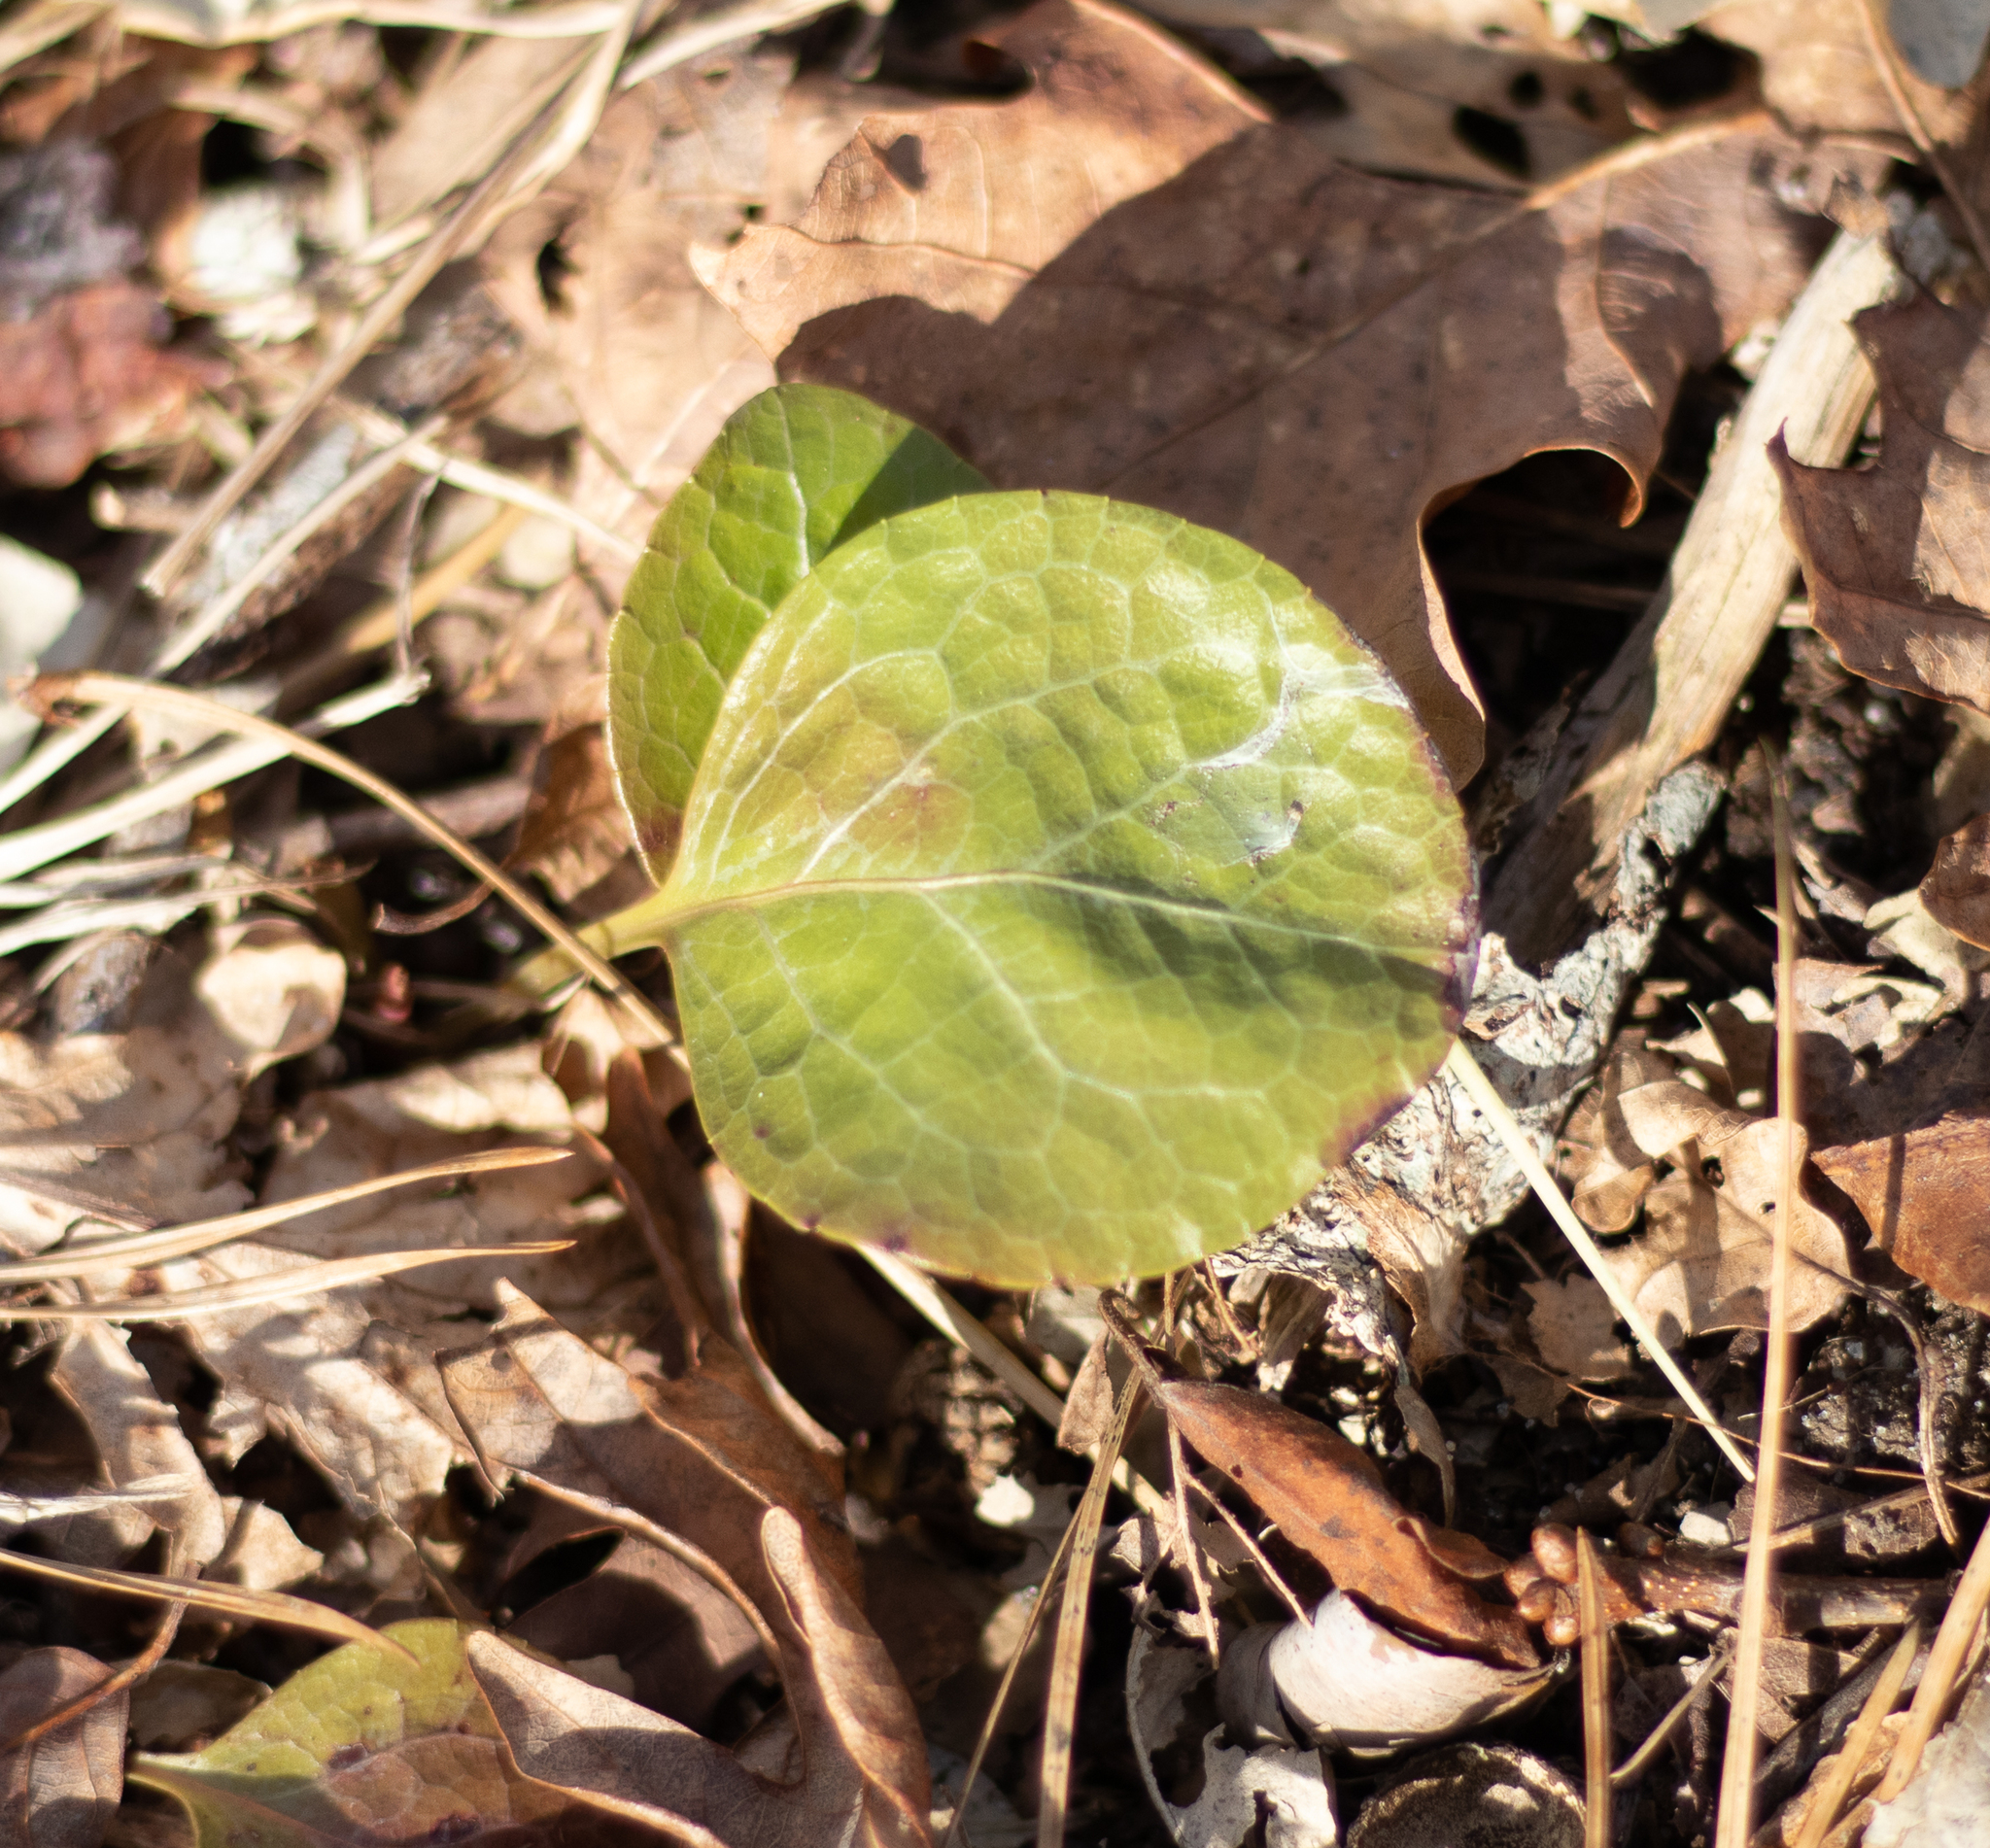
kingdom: Plantae
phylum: Tracheophyta
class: Magnoliopsida
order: Ericales
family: Ericaceae
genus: Pyrola
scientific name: Pyrola americana
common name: American wintergreen
